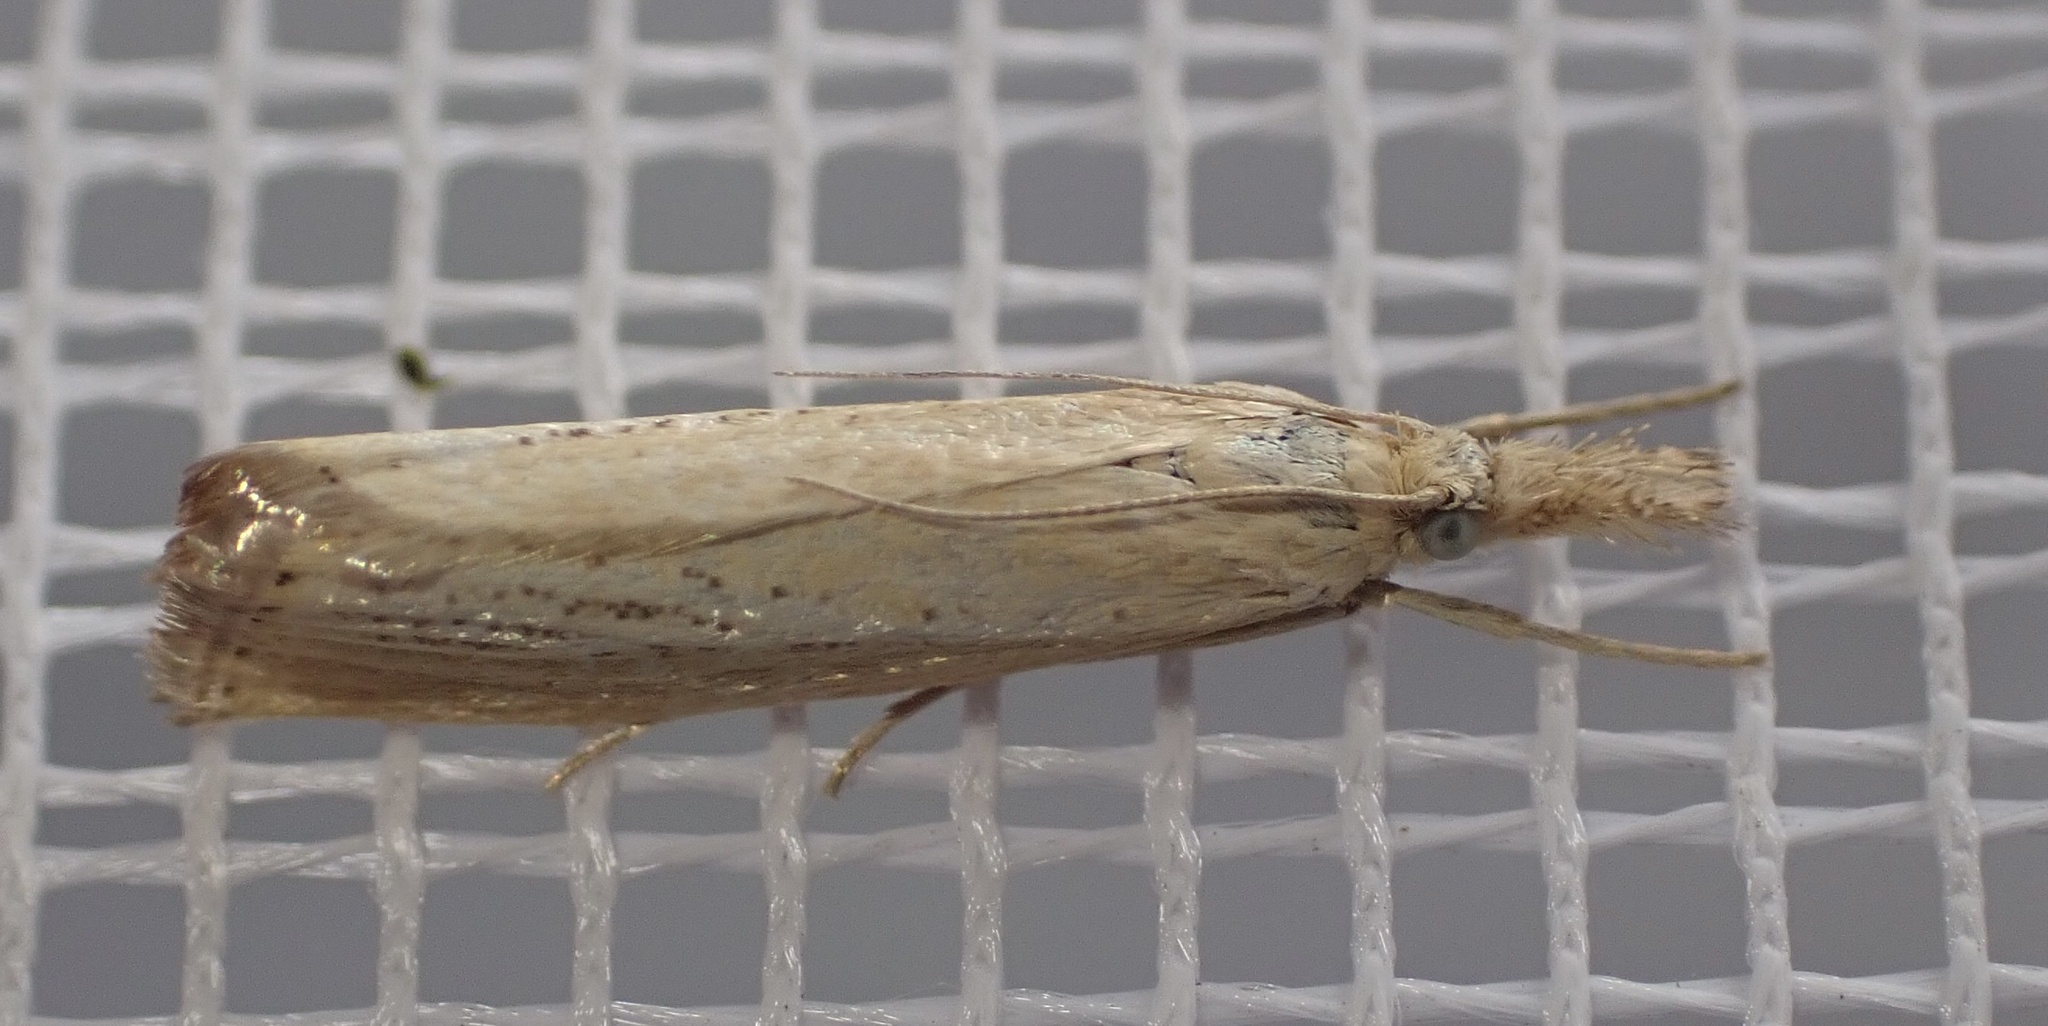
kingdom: Animalia
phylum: Arthropoda
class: Insecta
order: Lepidoptera
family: Crambidae
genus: Agriphila
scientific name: Agriphila straminella
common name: Straw grass-veneer
